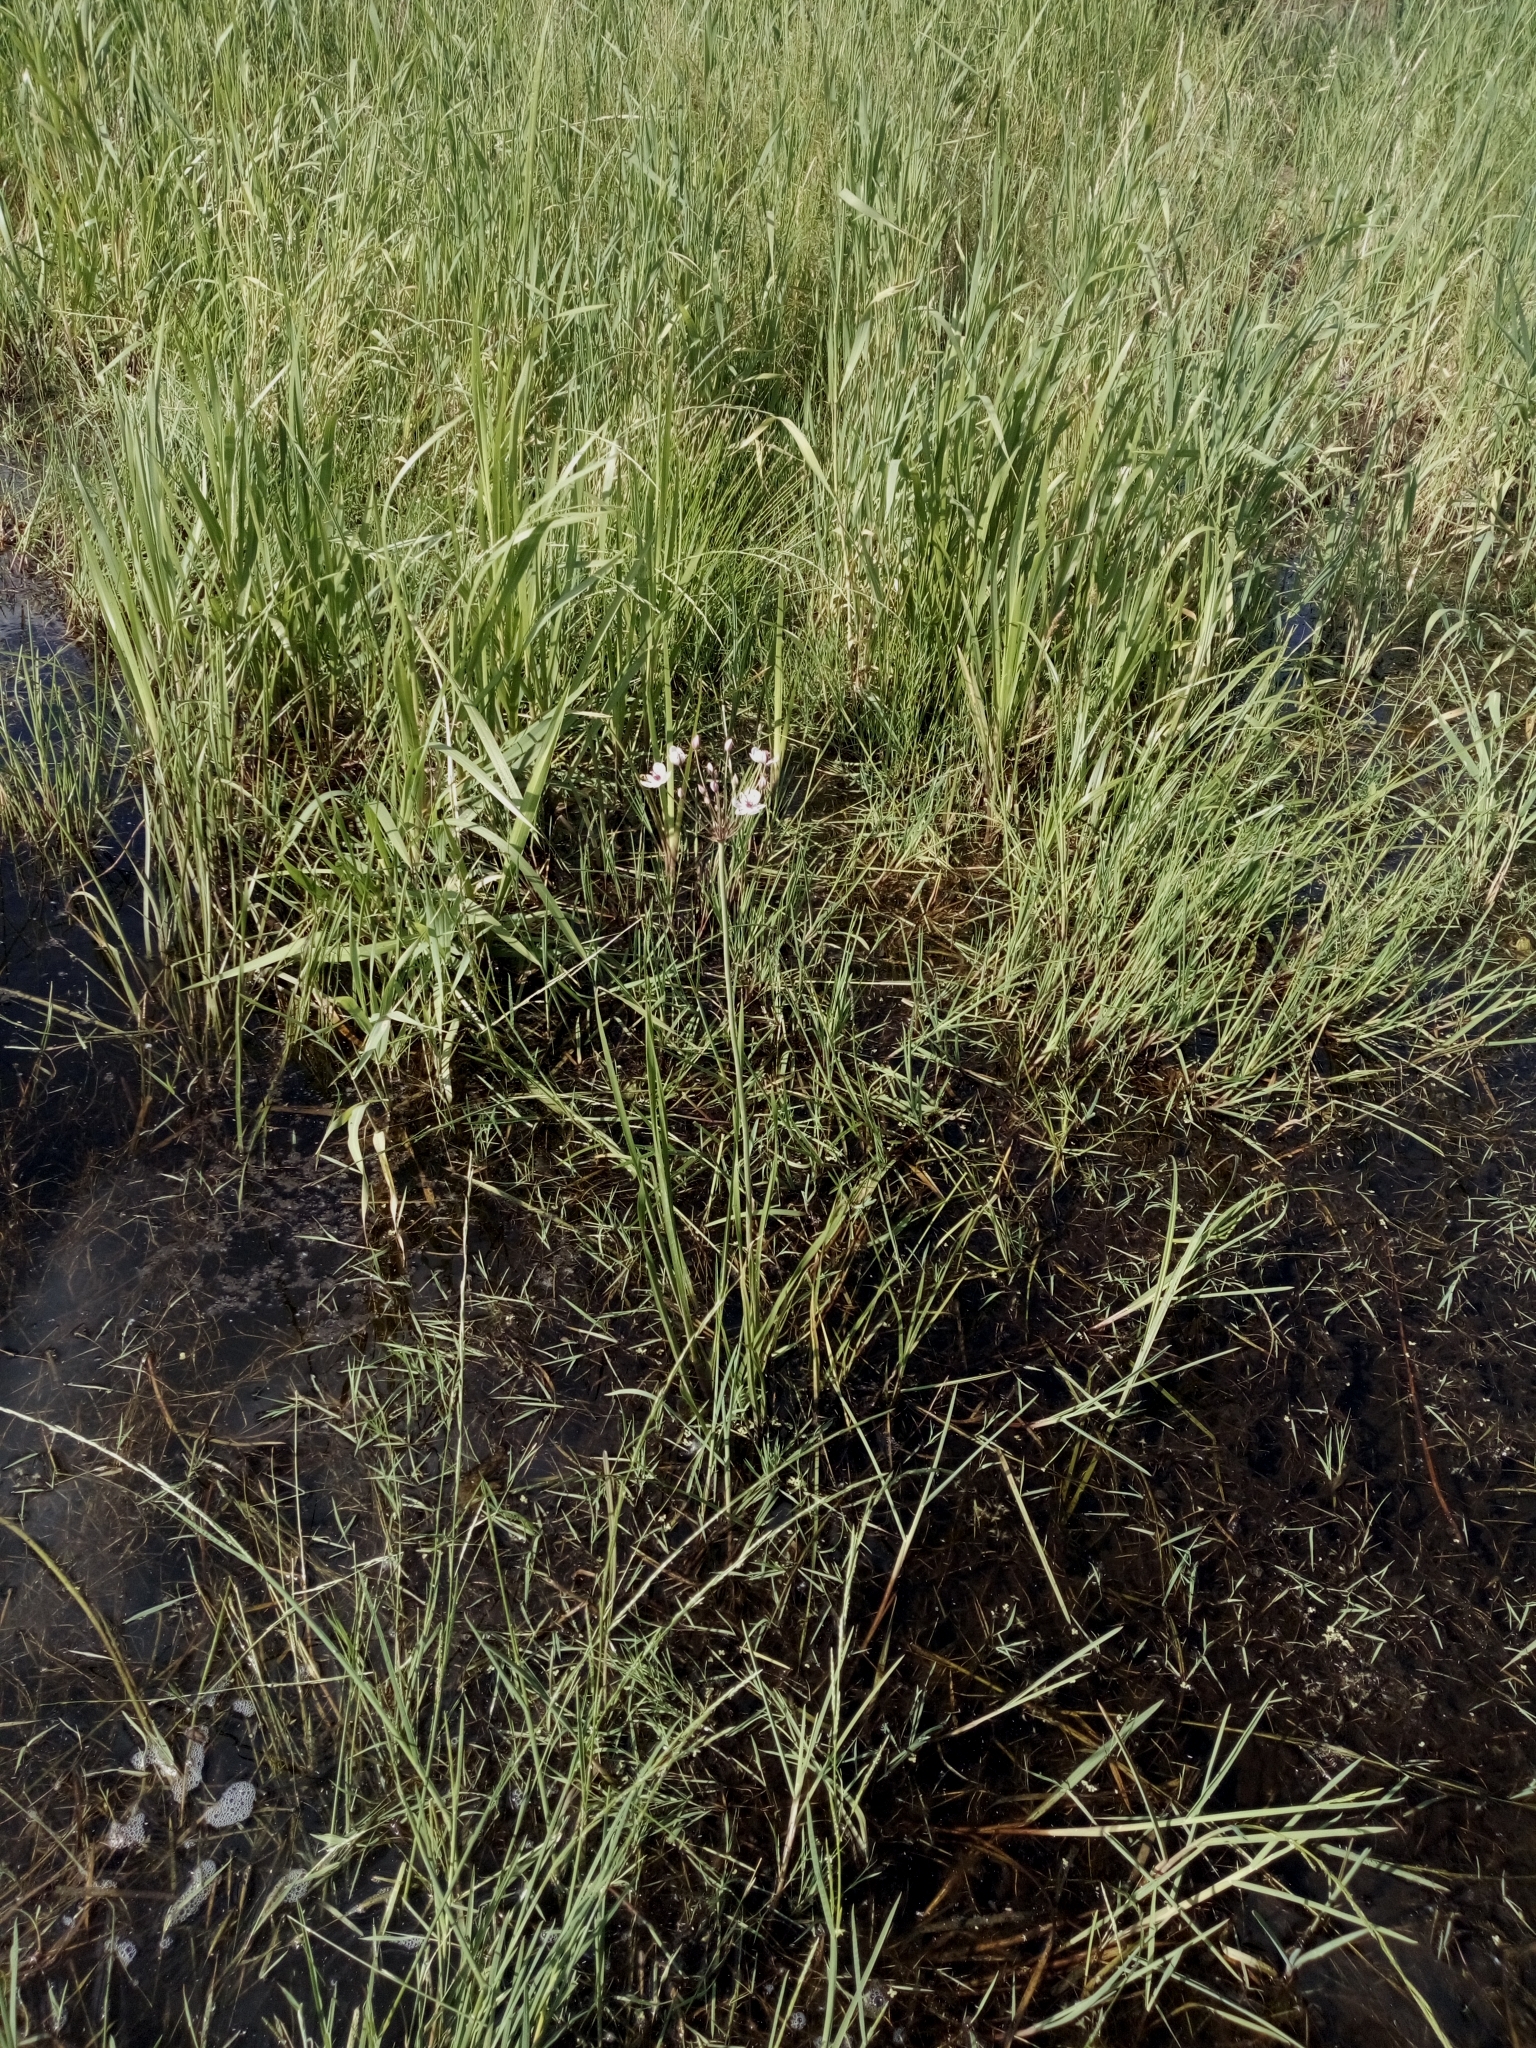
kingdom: Plantae
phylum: Tracheophyta
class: Liliopsida
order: Alismatales
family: Butomaceae
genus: Butomus
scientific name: Butomus umbellatus
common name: Flowering-rush
